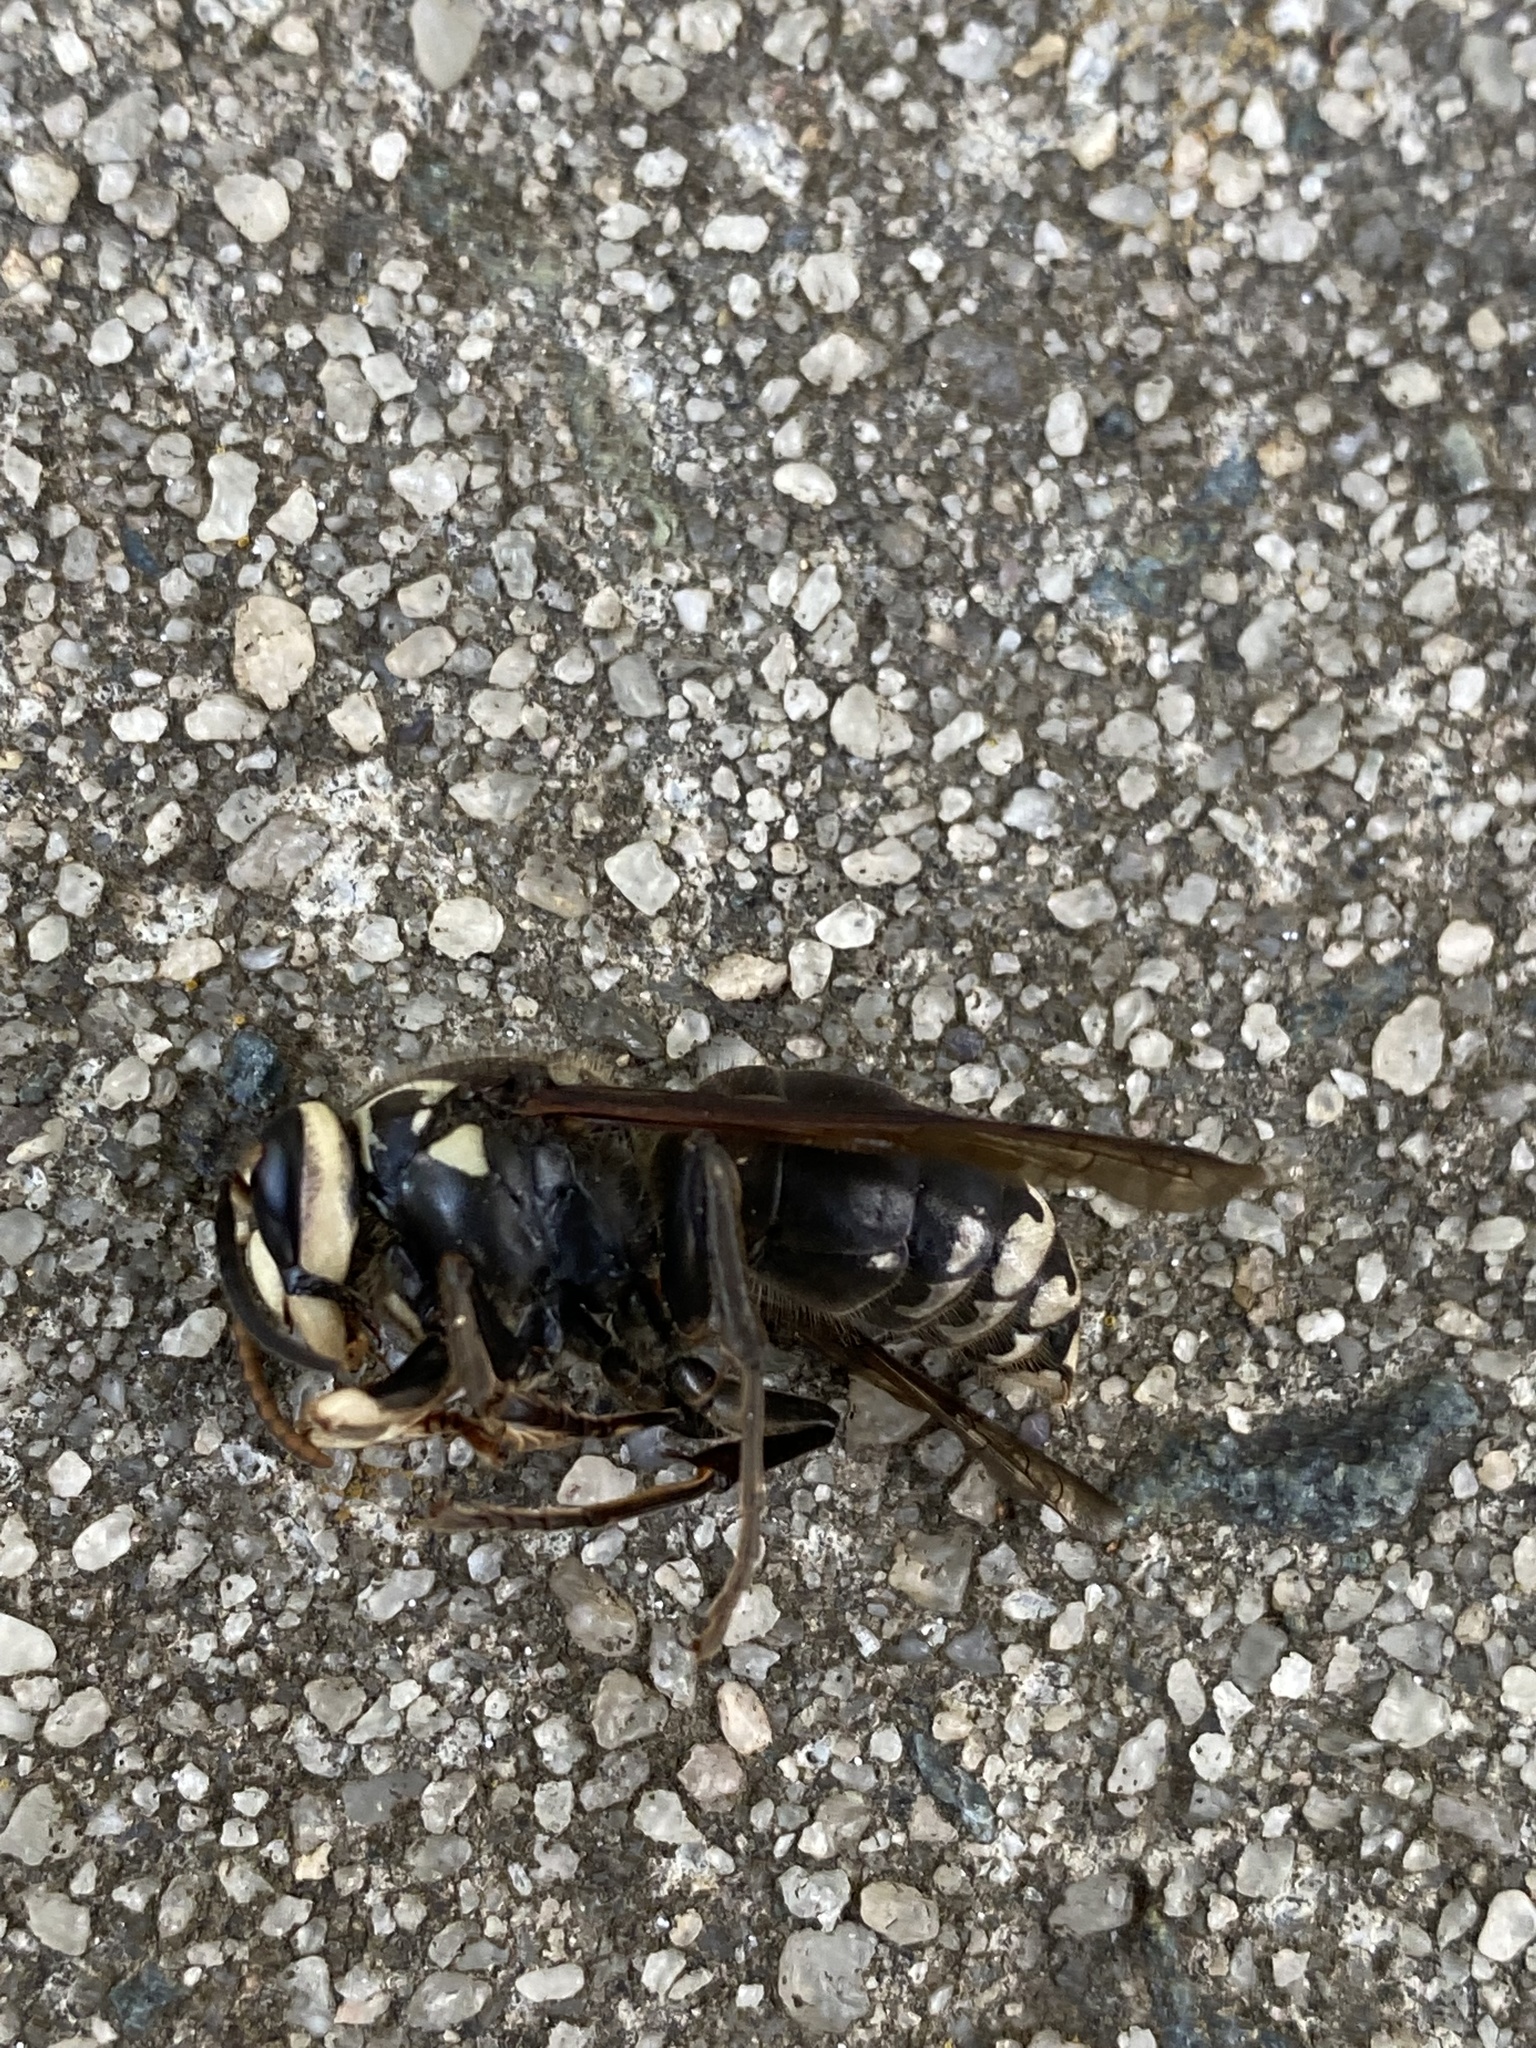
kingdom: Animalia
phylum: Arthropoda
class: Insecta
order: Hymenoptera
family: Vespidae
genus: Dolichovespula
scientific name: Dolichovespula maculata
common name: Bald-faced hornet
